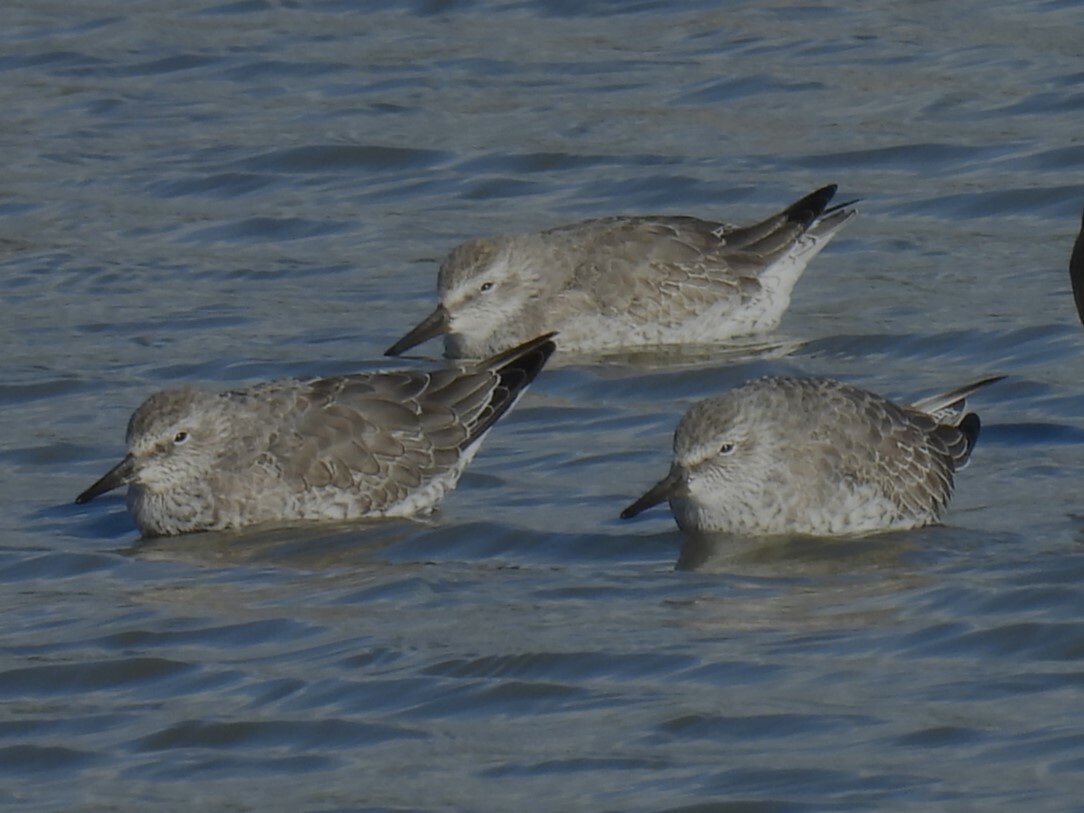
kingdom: Animalia
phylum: Chordata
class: Aves
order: Charadriiformes
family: Scolopacidae
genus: Calidris
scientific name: Calidris canutus
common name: Red knot
